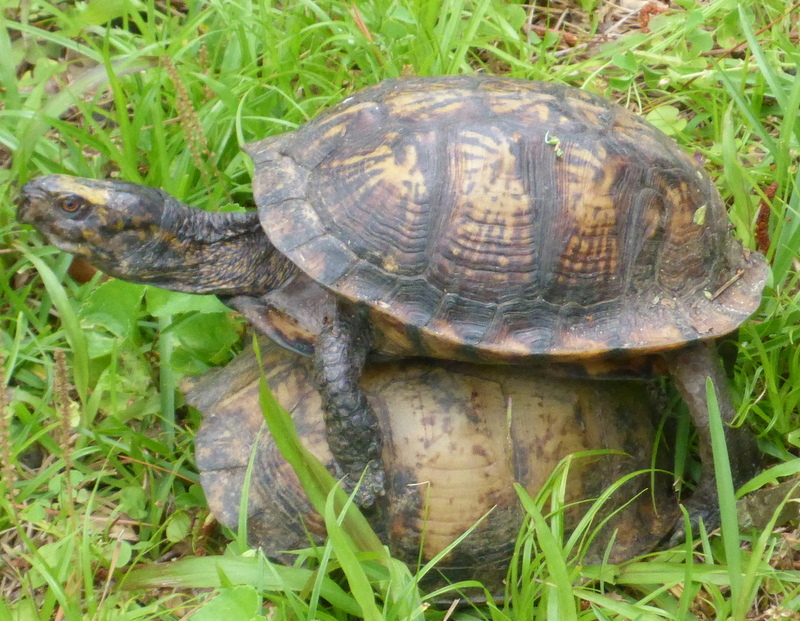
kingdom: Animalia
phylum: Chordata
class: Testudines
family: Emydidae
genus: Terrapene
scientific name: Terrapene carolina
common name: Common box turtle
